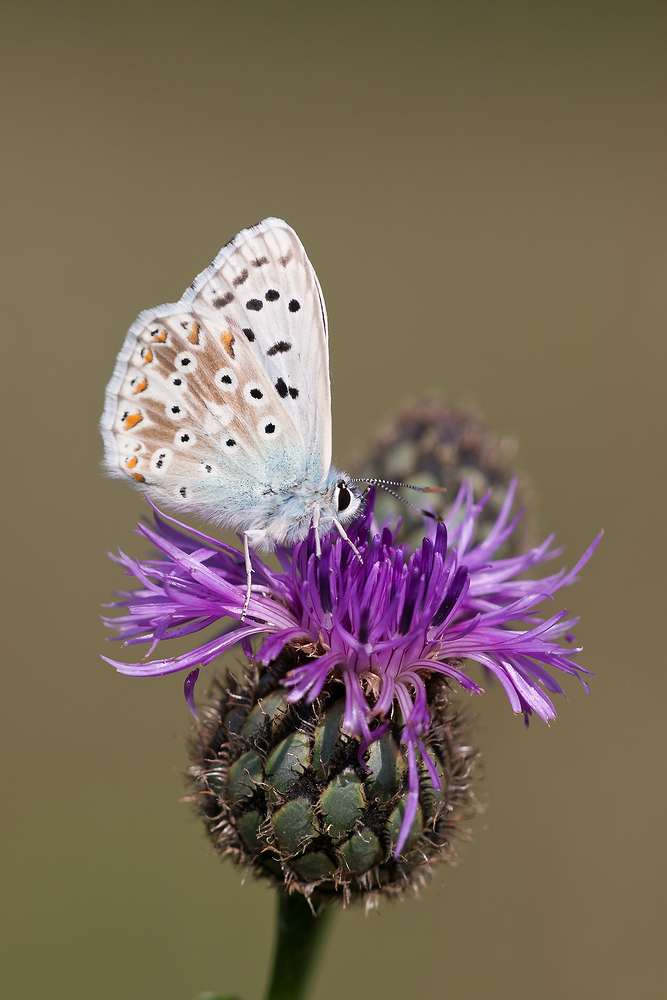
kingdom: Animalia
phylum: Arthropoda
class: Insecta
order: Lepidoptera
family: Lycaenidae
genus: Lysandra
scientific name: Lysandra coridon
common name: Chalkhill blue
